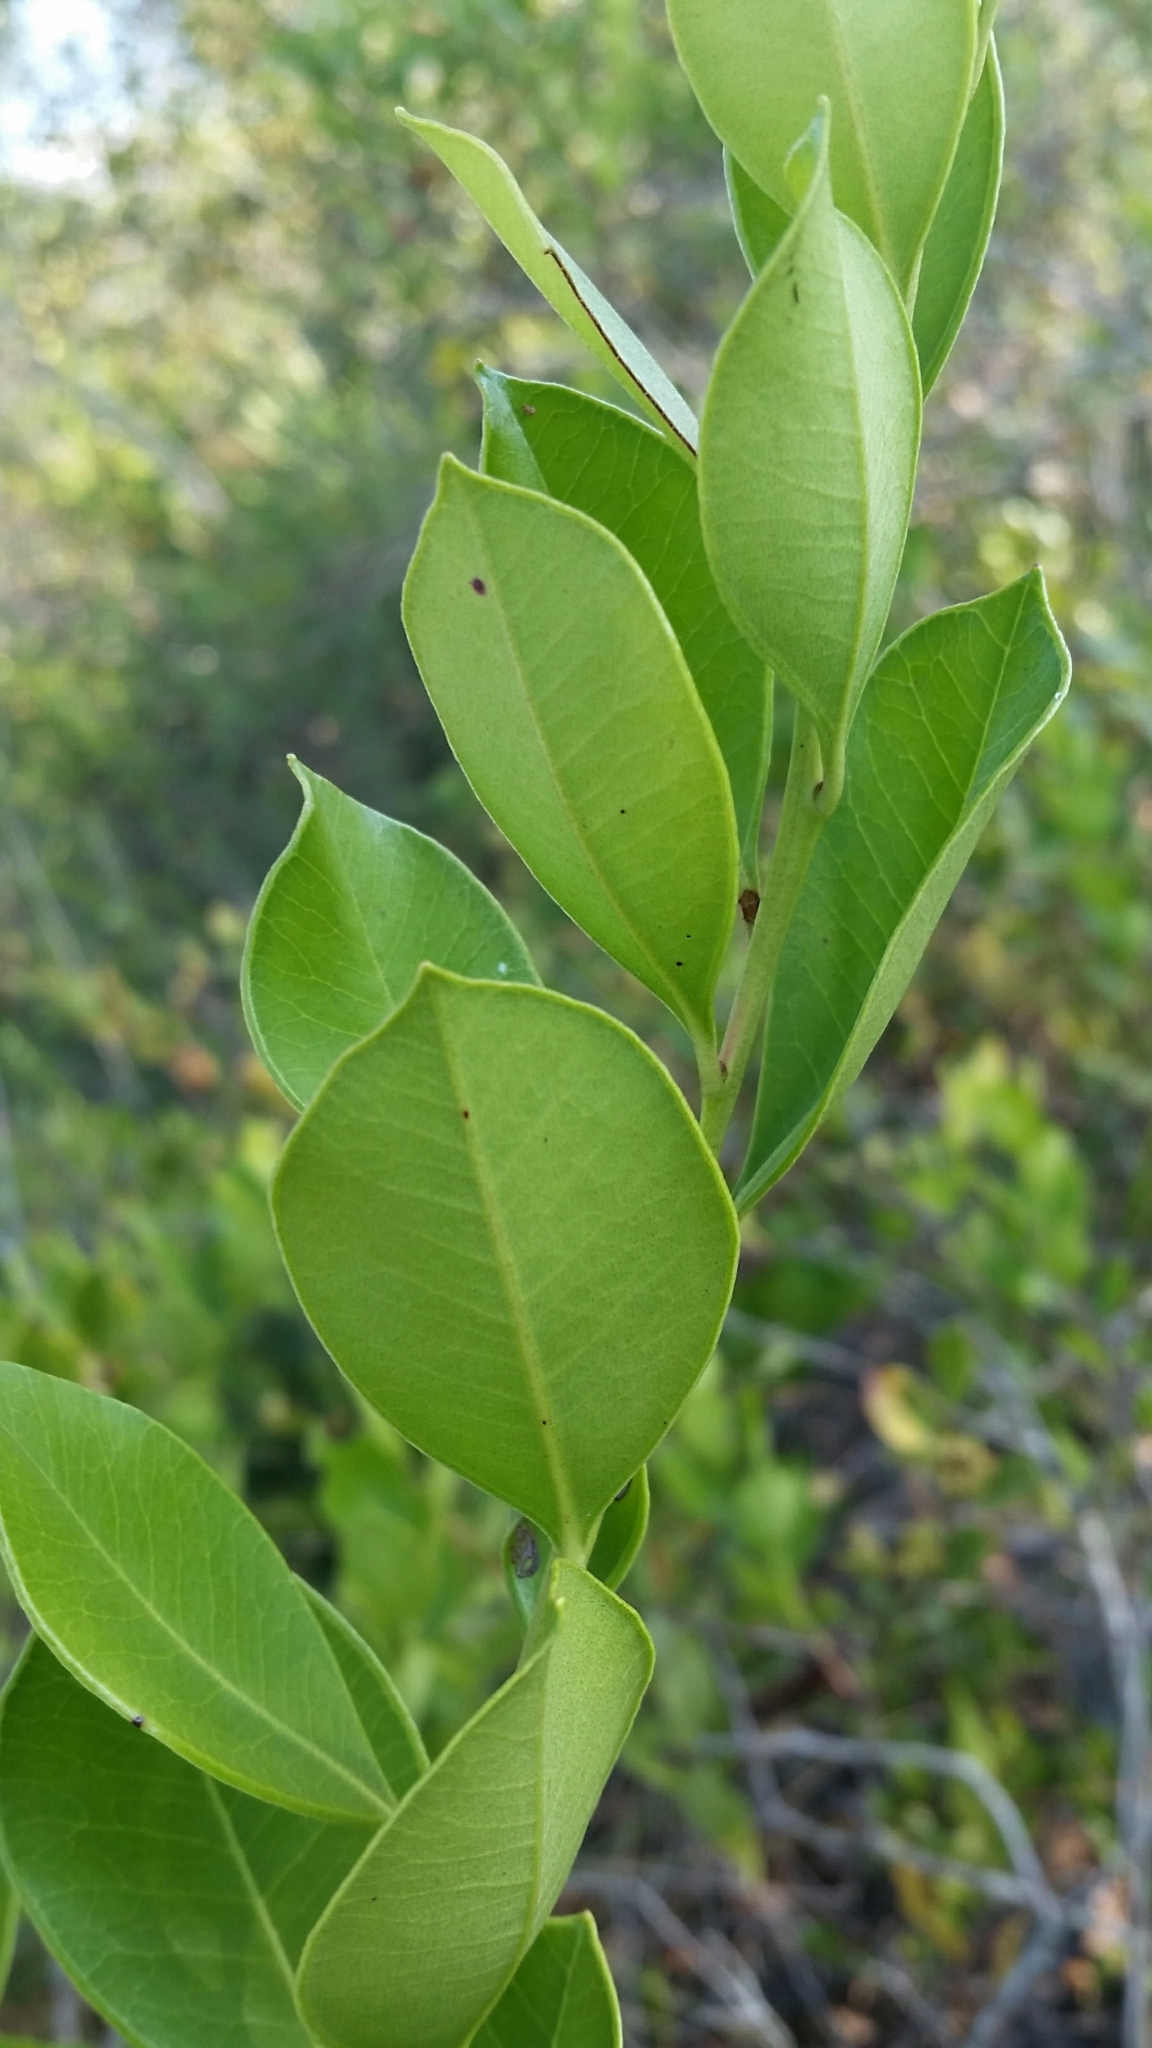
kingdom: Plantae
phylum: Tracheophyta
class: Magnoliopsida
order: Ericales
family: Ericaceae
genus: Lyonia
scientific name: Lyonia lucida
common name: Fetterbush
